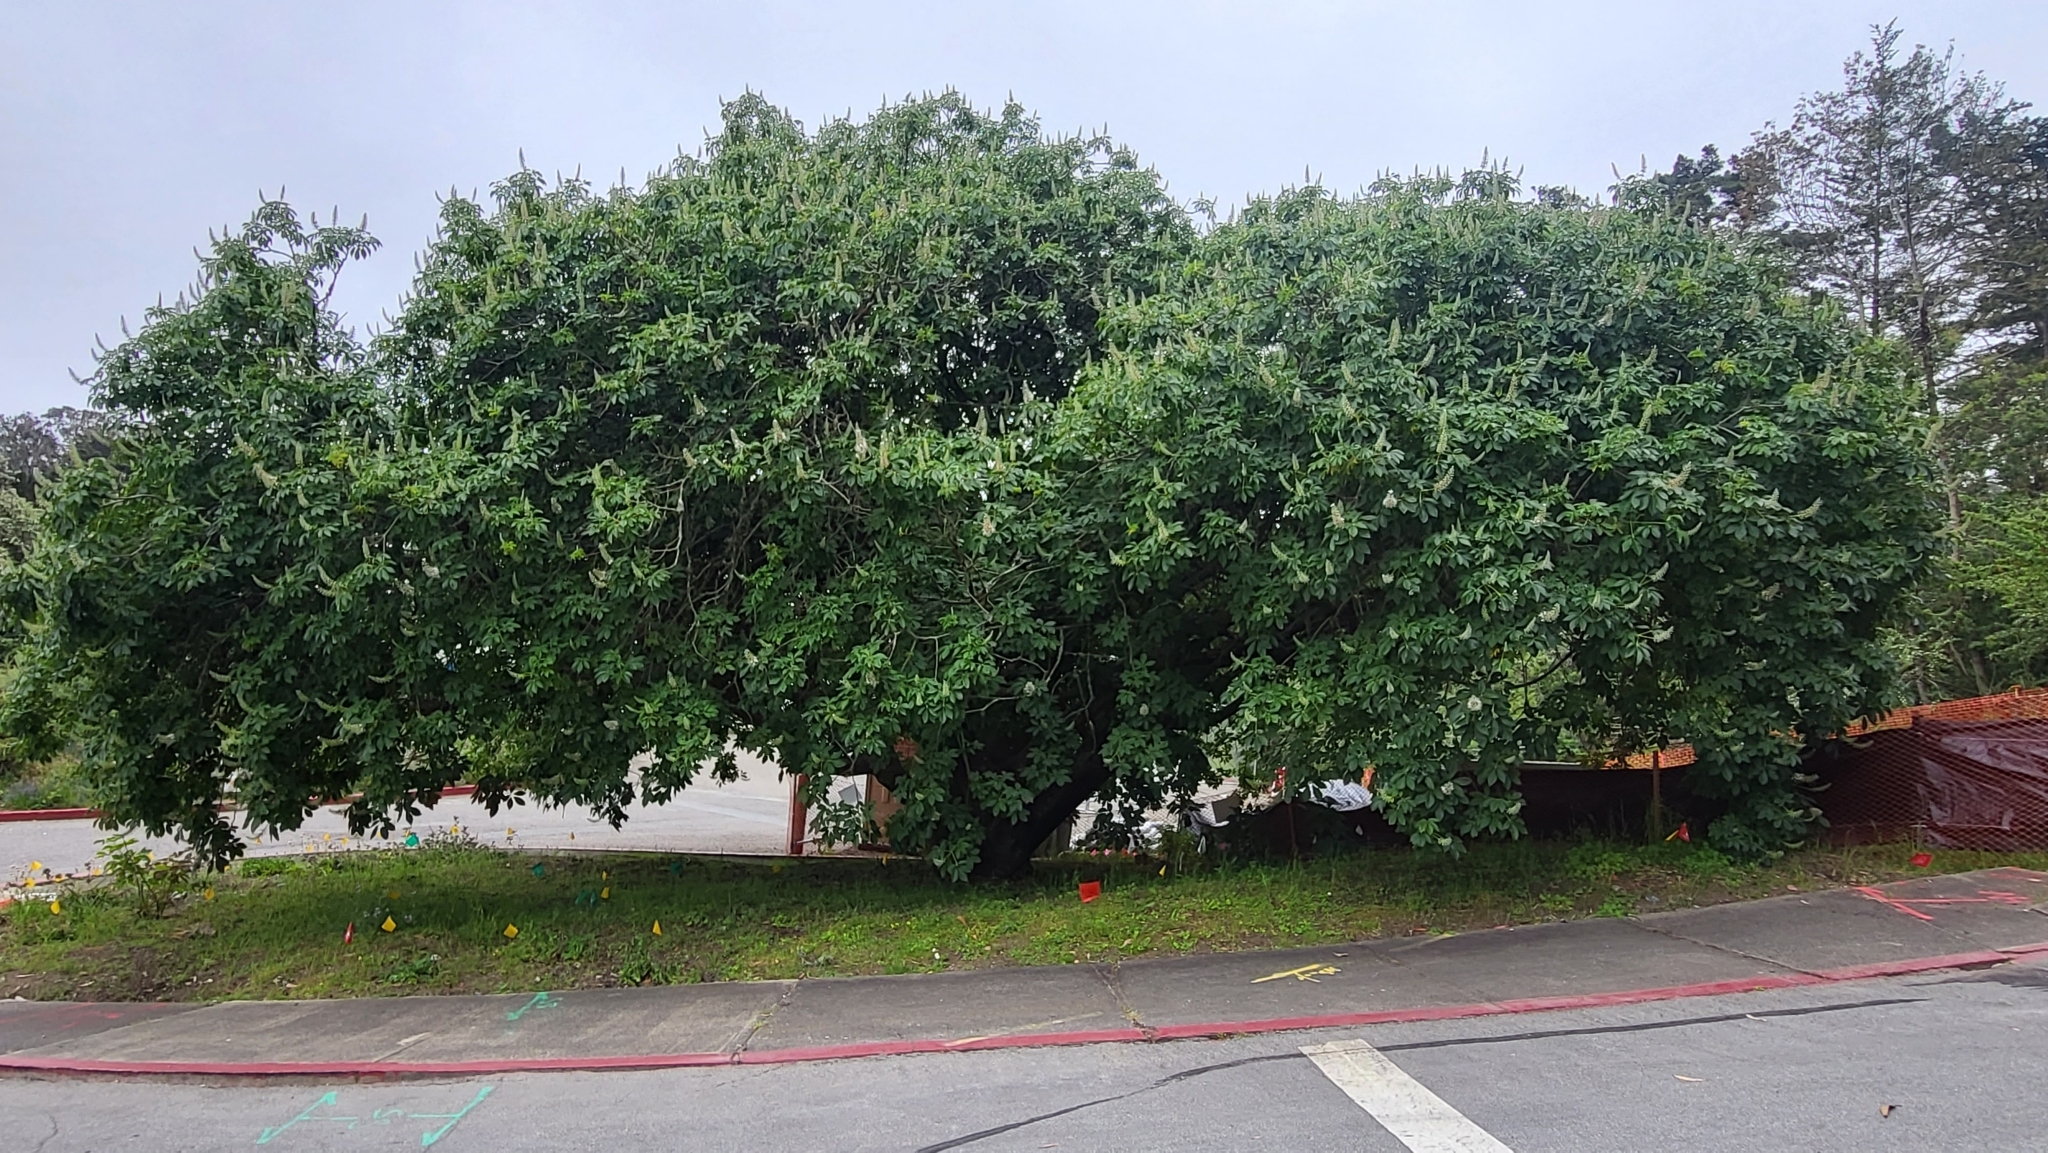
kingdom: Plantae
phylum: Tracheophyta
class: Magnoliopsida
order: Sapindales
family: Sapindaceae
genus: Aesculus
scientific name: Aesculus californica
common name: California buckeye
